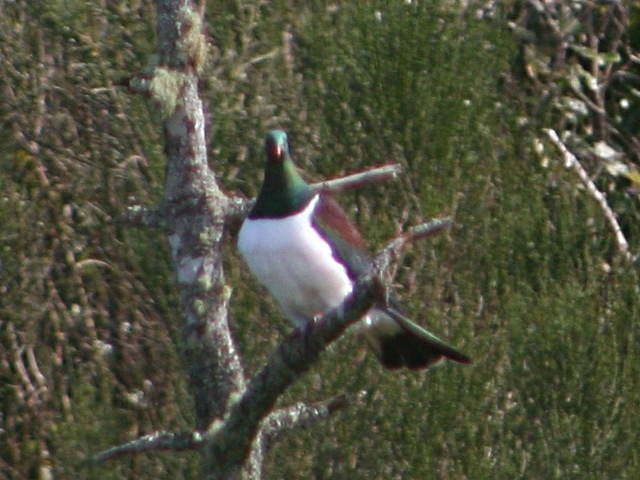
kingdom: Animalia
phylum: Chordata
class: Aves
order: Columbiformes
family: Columbidae
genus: Hemiphaga
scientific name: Hemiphaga novaeseelandiae
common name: New zealand pigeon
